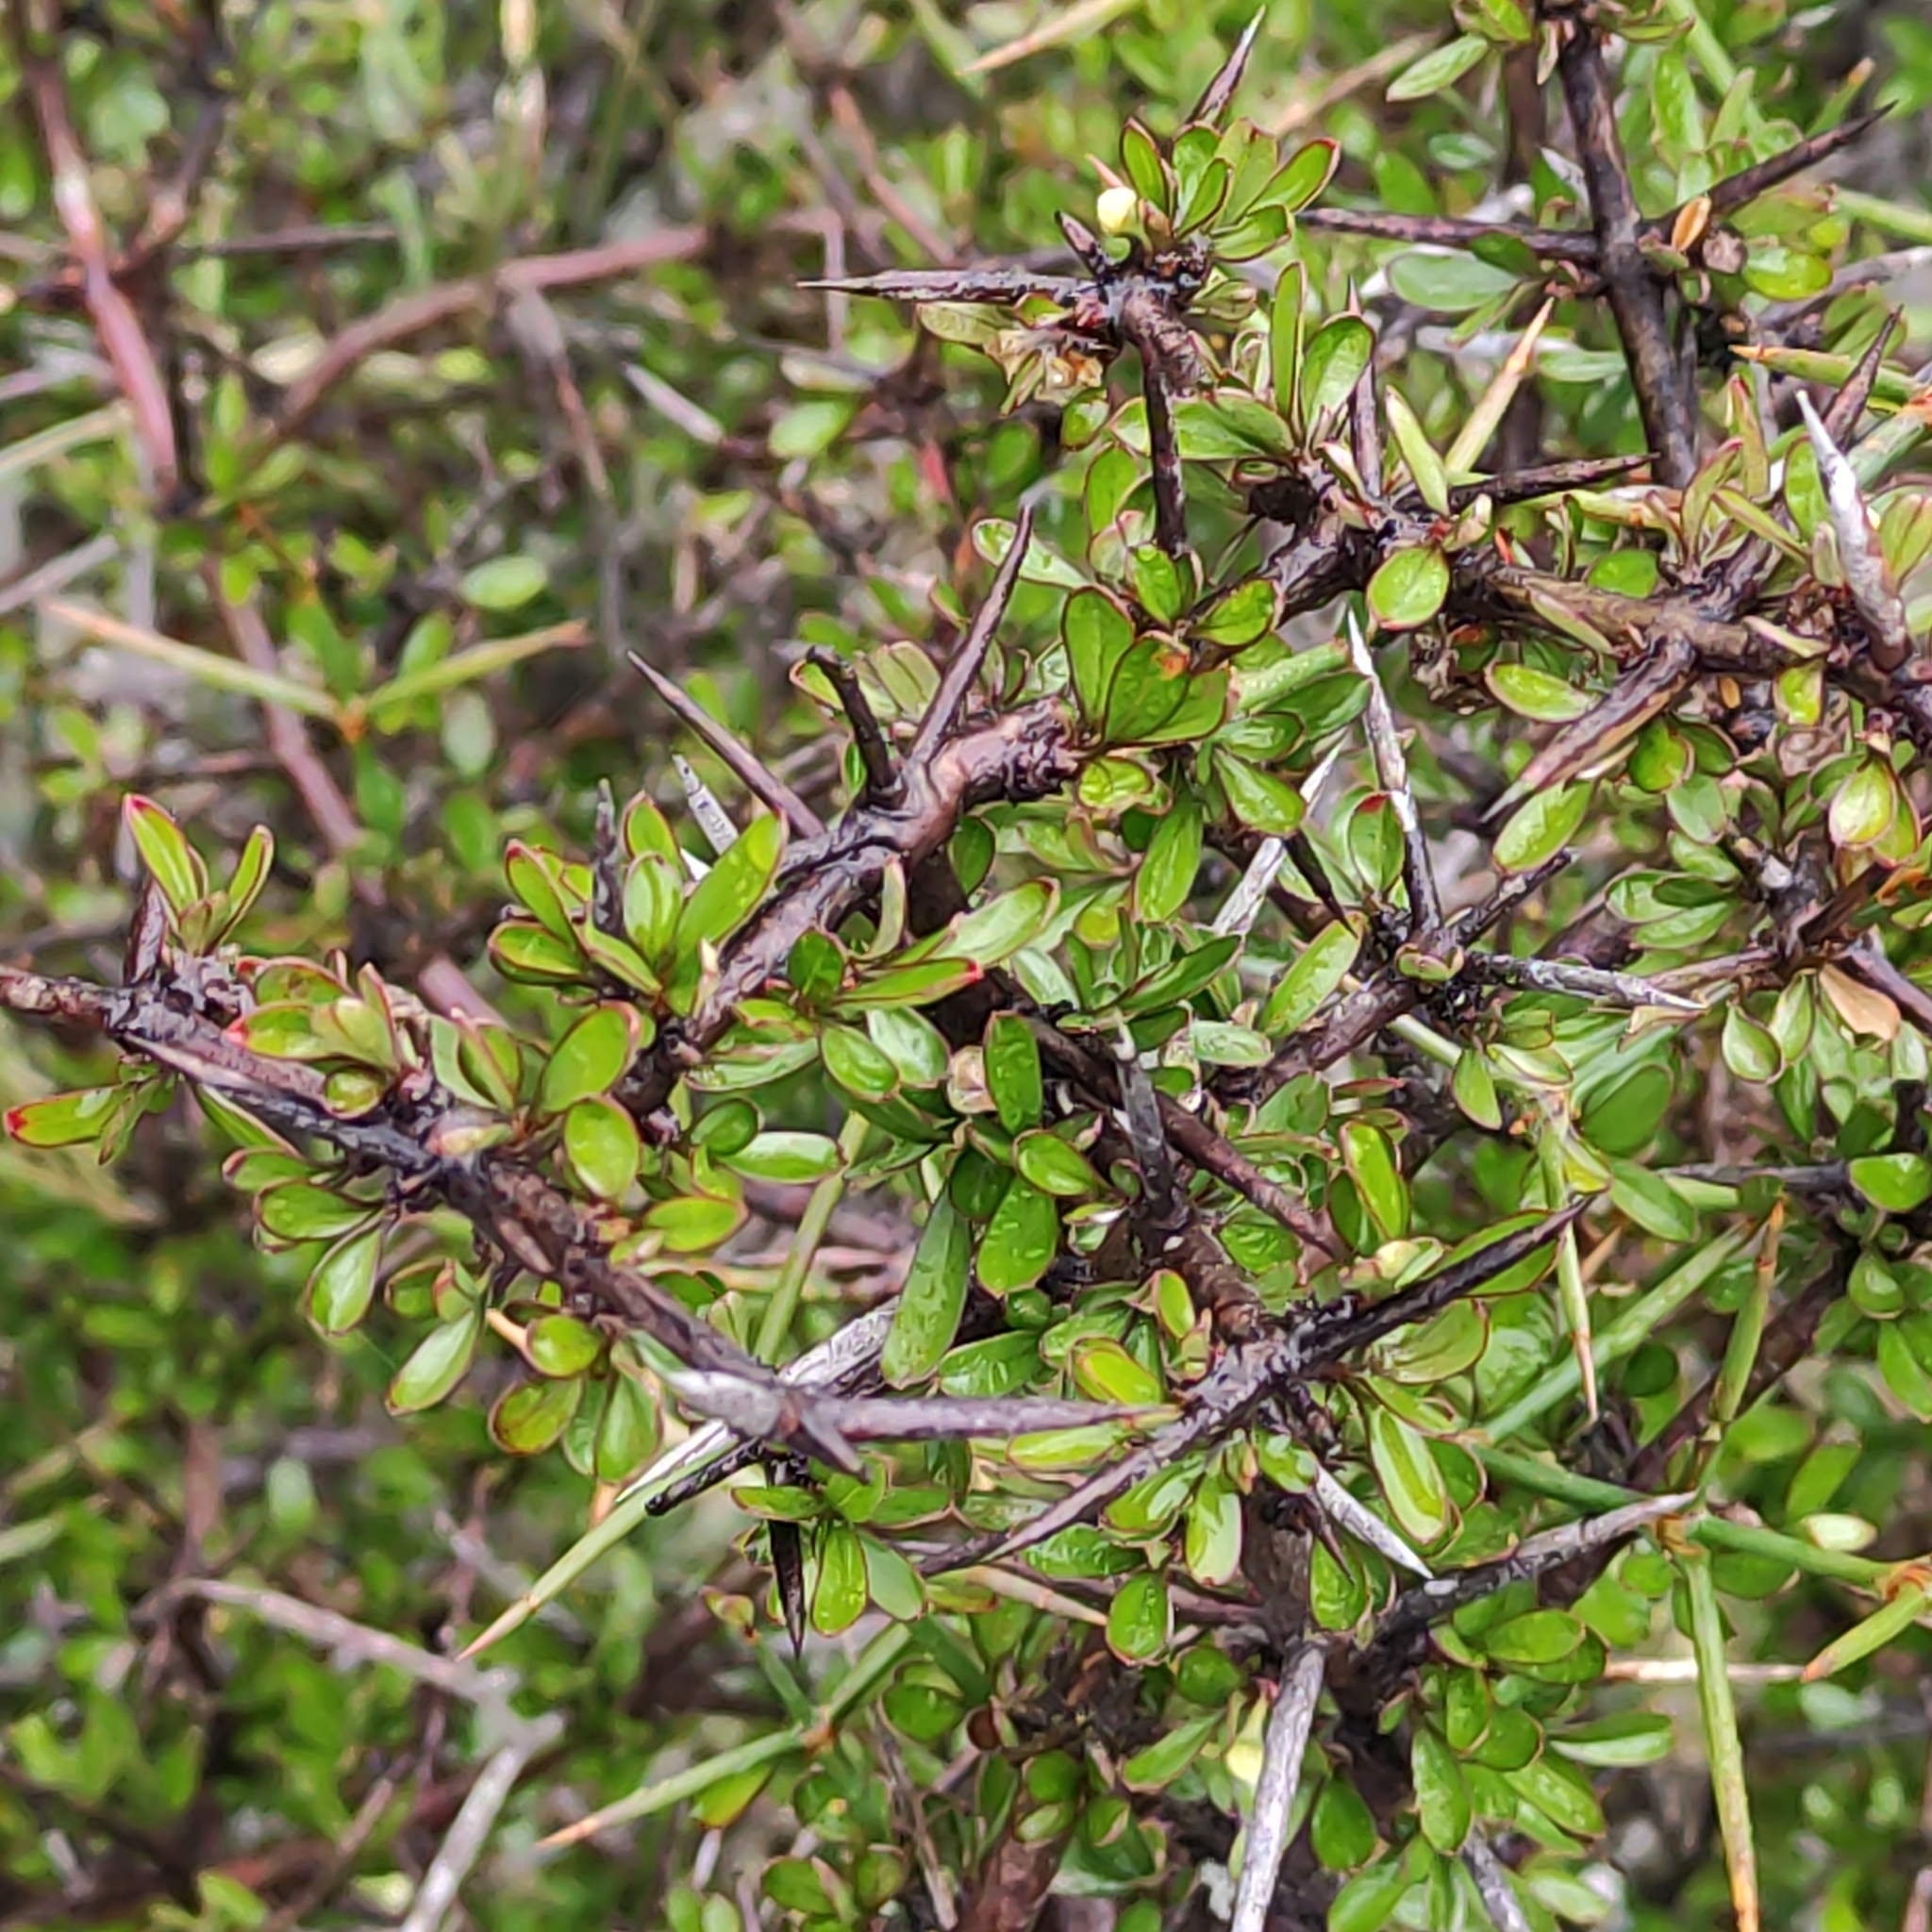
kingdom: Plantae
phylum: Tracheophyta
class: Magnoliopsida
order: Rosales
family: Rhamnaceae
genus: Discaria
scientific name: Discaria toumatou
